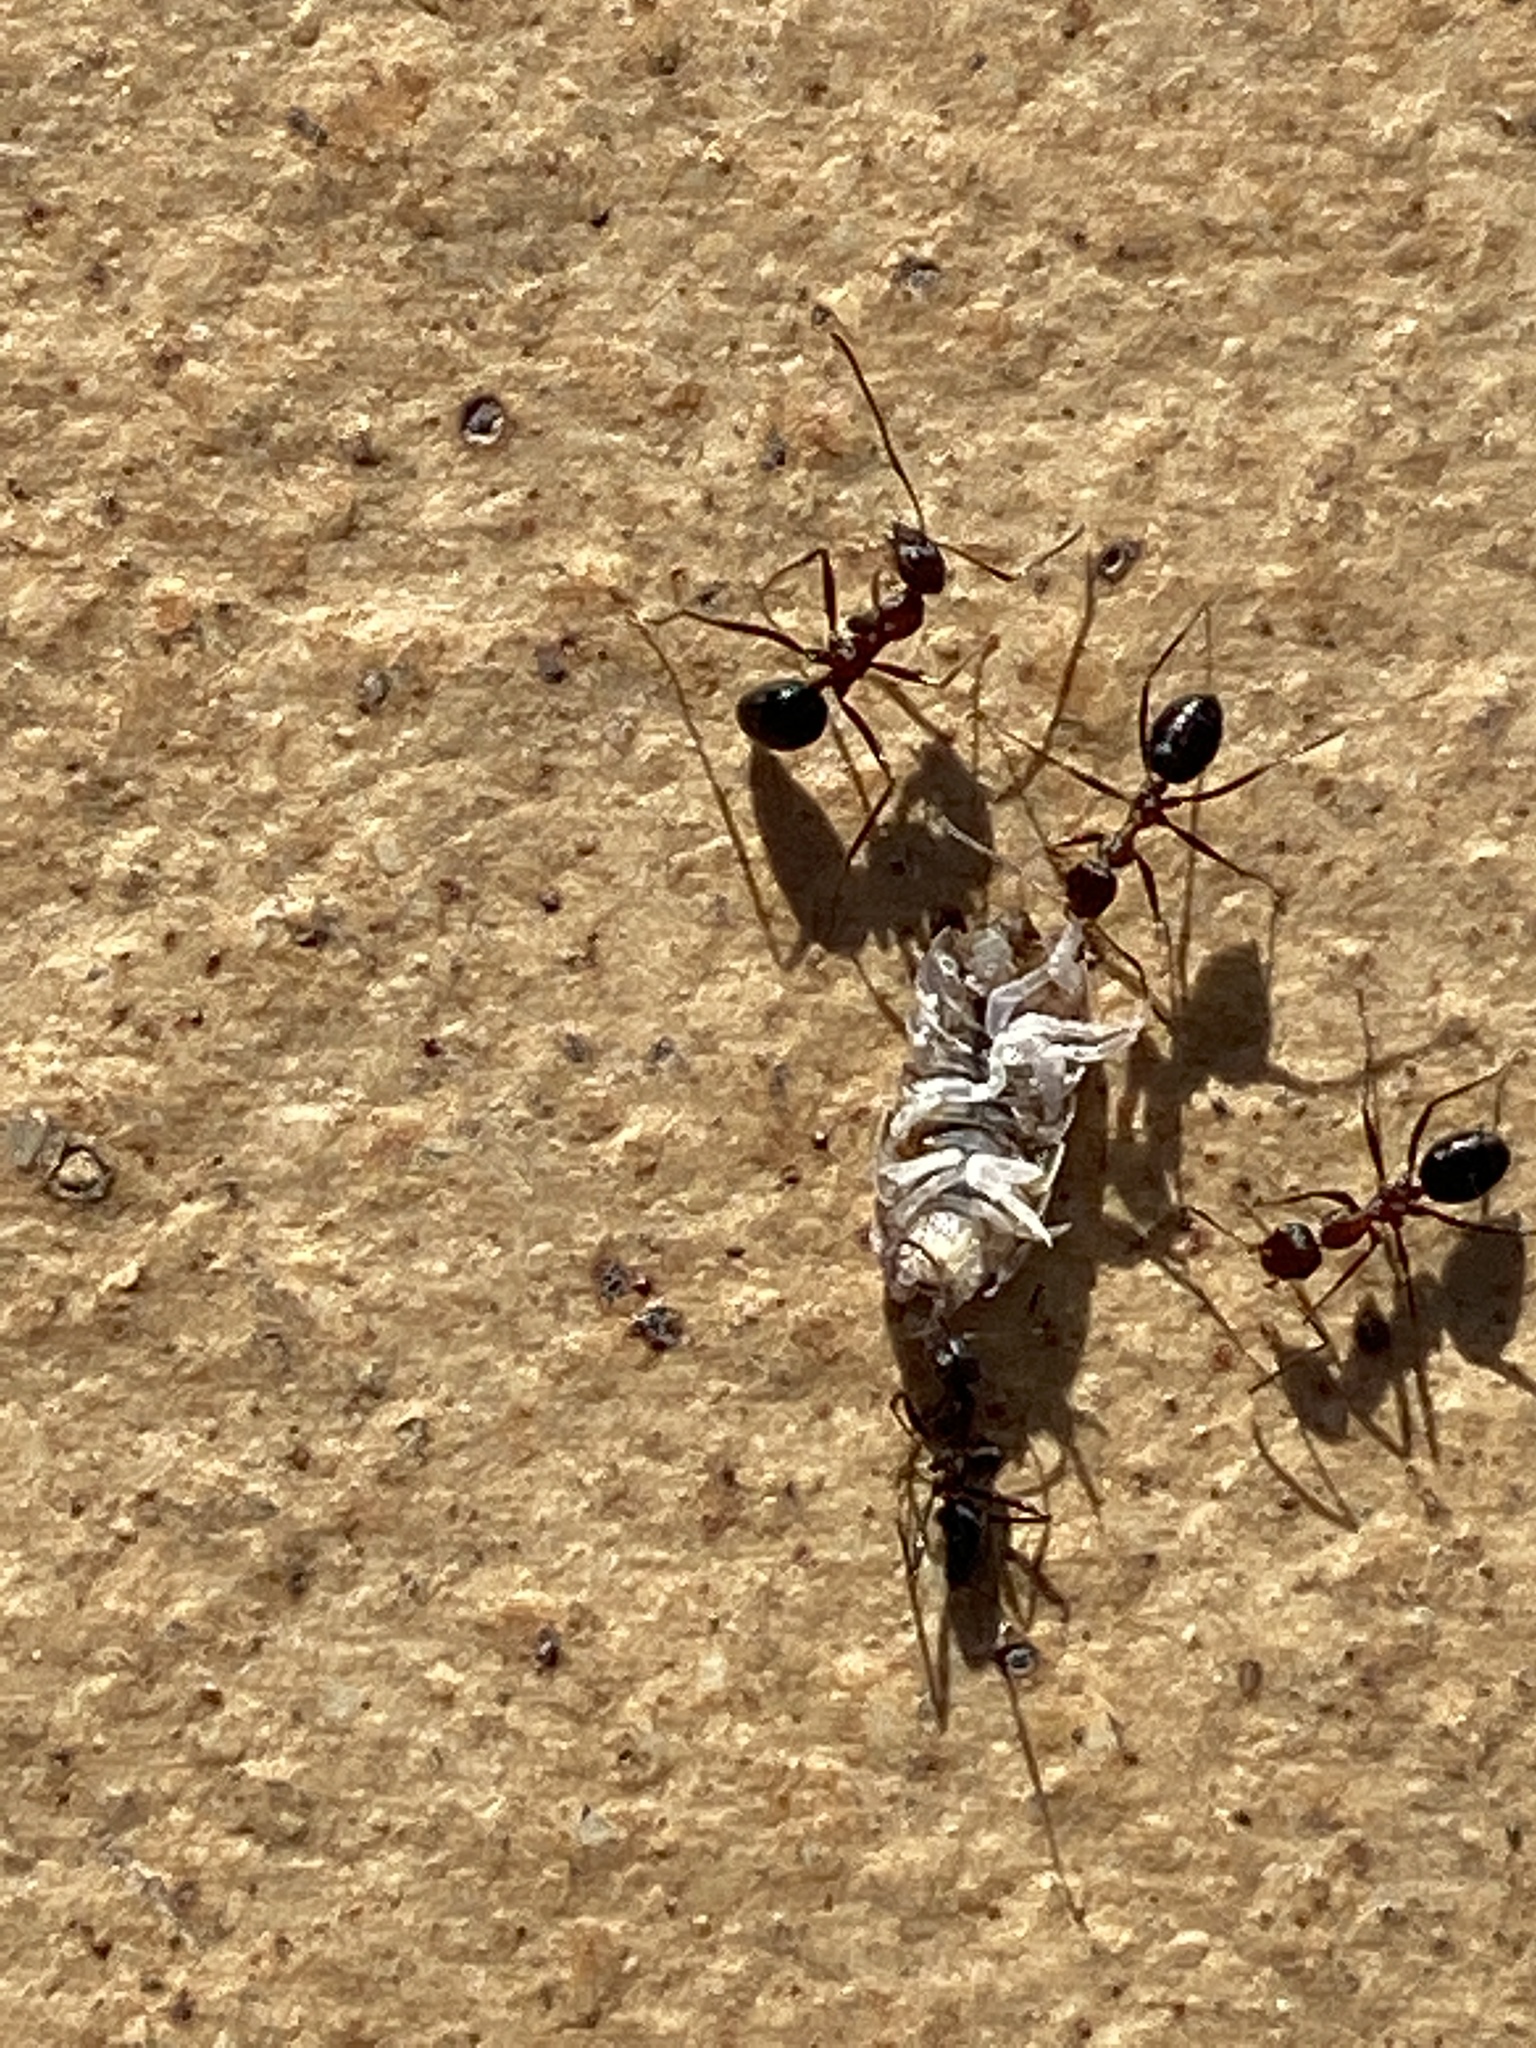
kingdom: Animalia
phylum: Arthropoda
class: Insecta
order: Hymenoptera
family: Formicidae
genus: Lepisiota
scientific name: Lepisiota frauenfeldi
